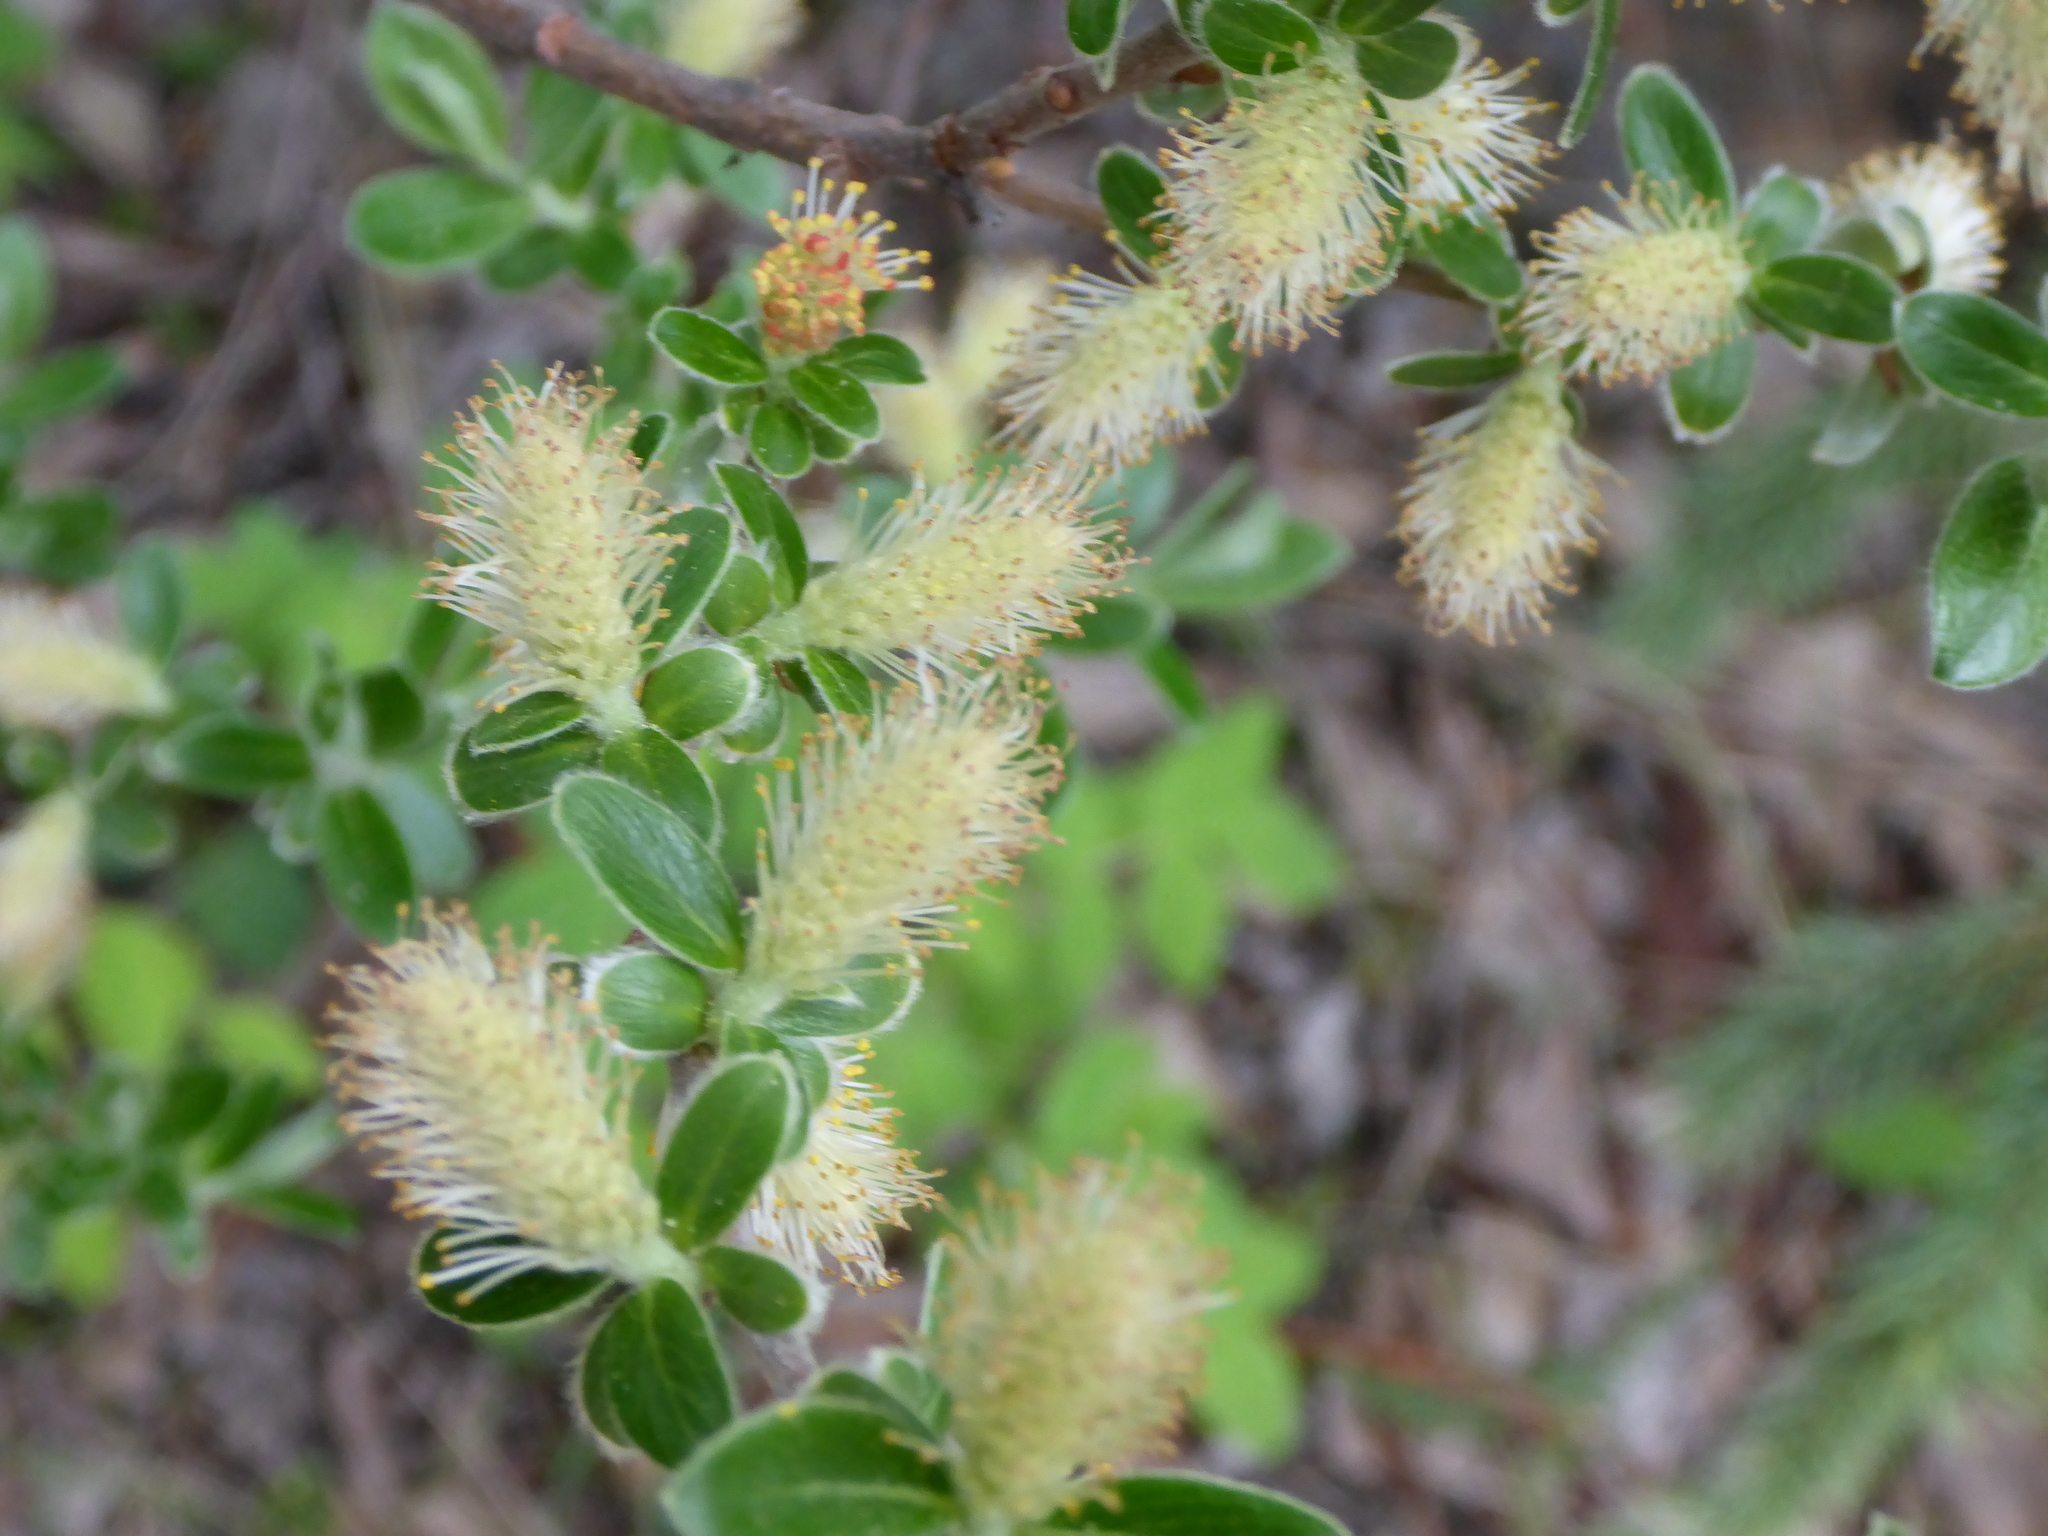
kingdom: Plantae
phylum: Tracheophyta
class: Magnoliopsida
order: Malpighiales
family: Salicaceae
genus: Salix
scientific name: Salix glauca
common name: Glaucous willow
